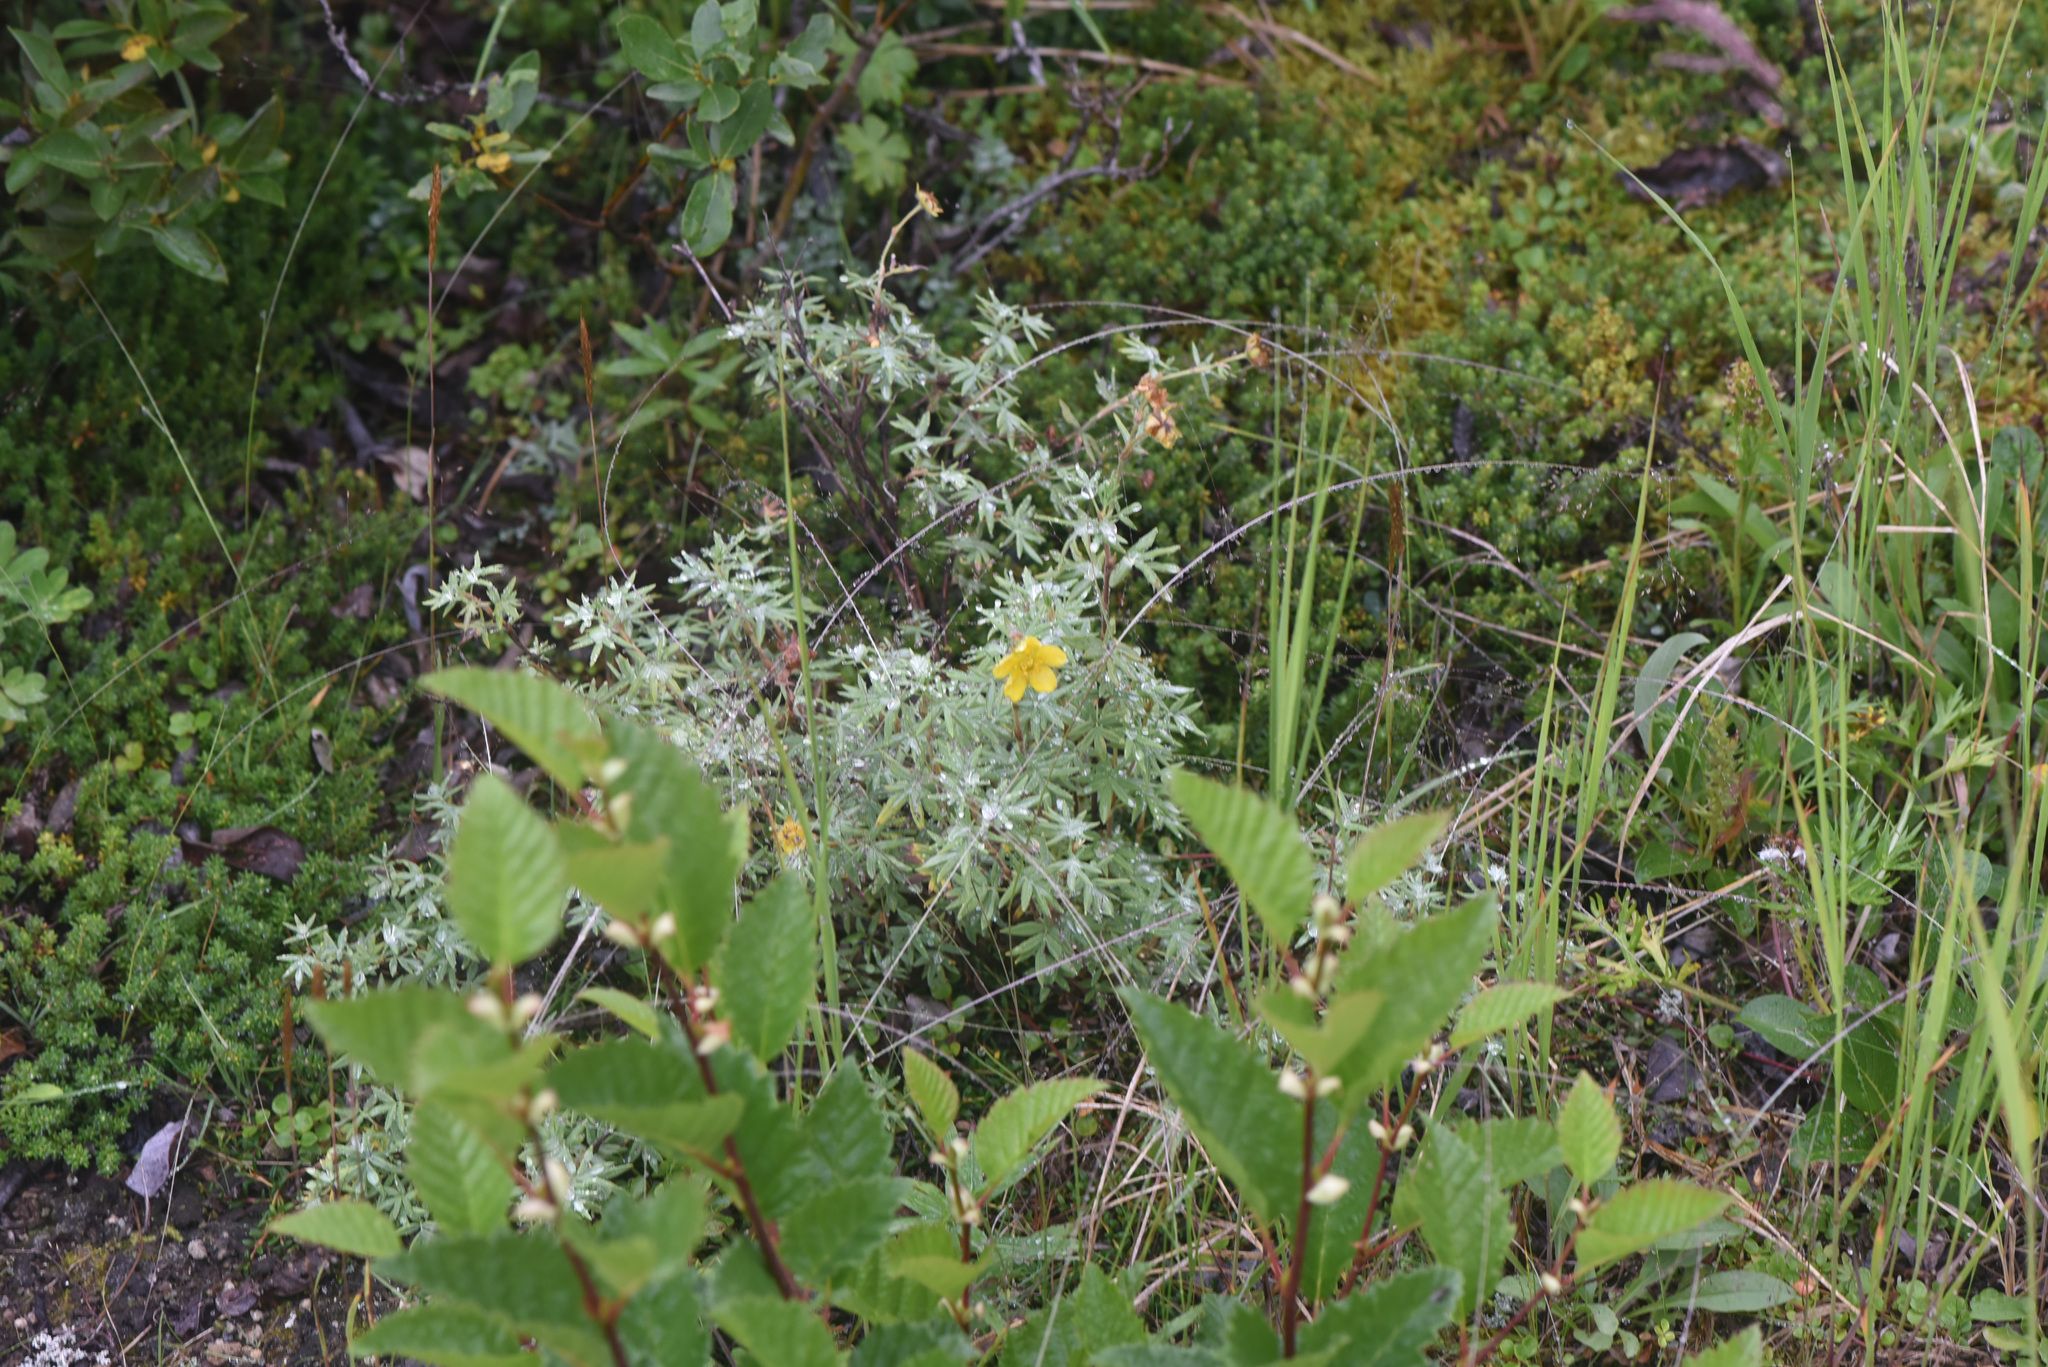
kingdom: Plantae
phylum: Tracheophyta
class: Magnoliopsida
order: Rosales
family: Rosaceae
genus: Dasiphora
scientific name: Dasiphora fruticosa
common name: Shrubby cinquefoil
